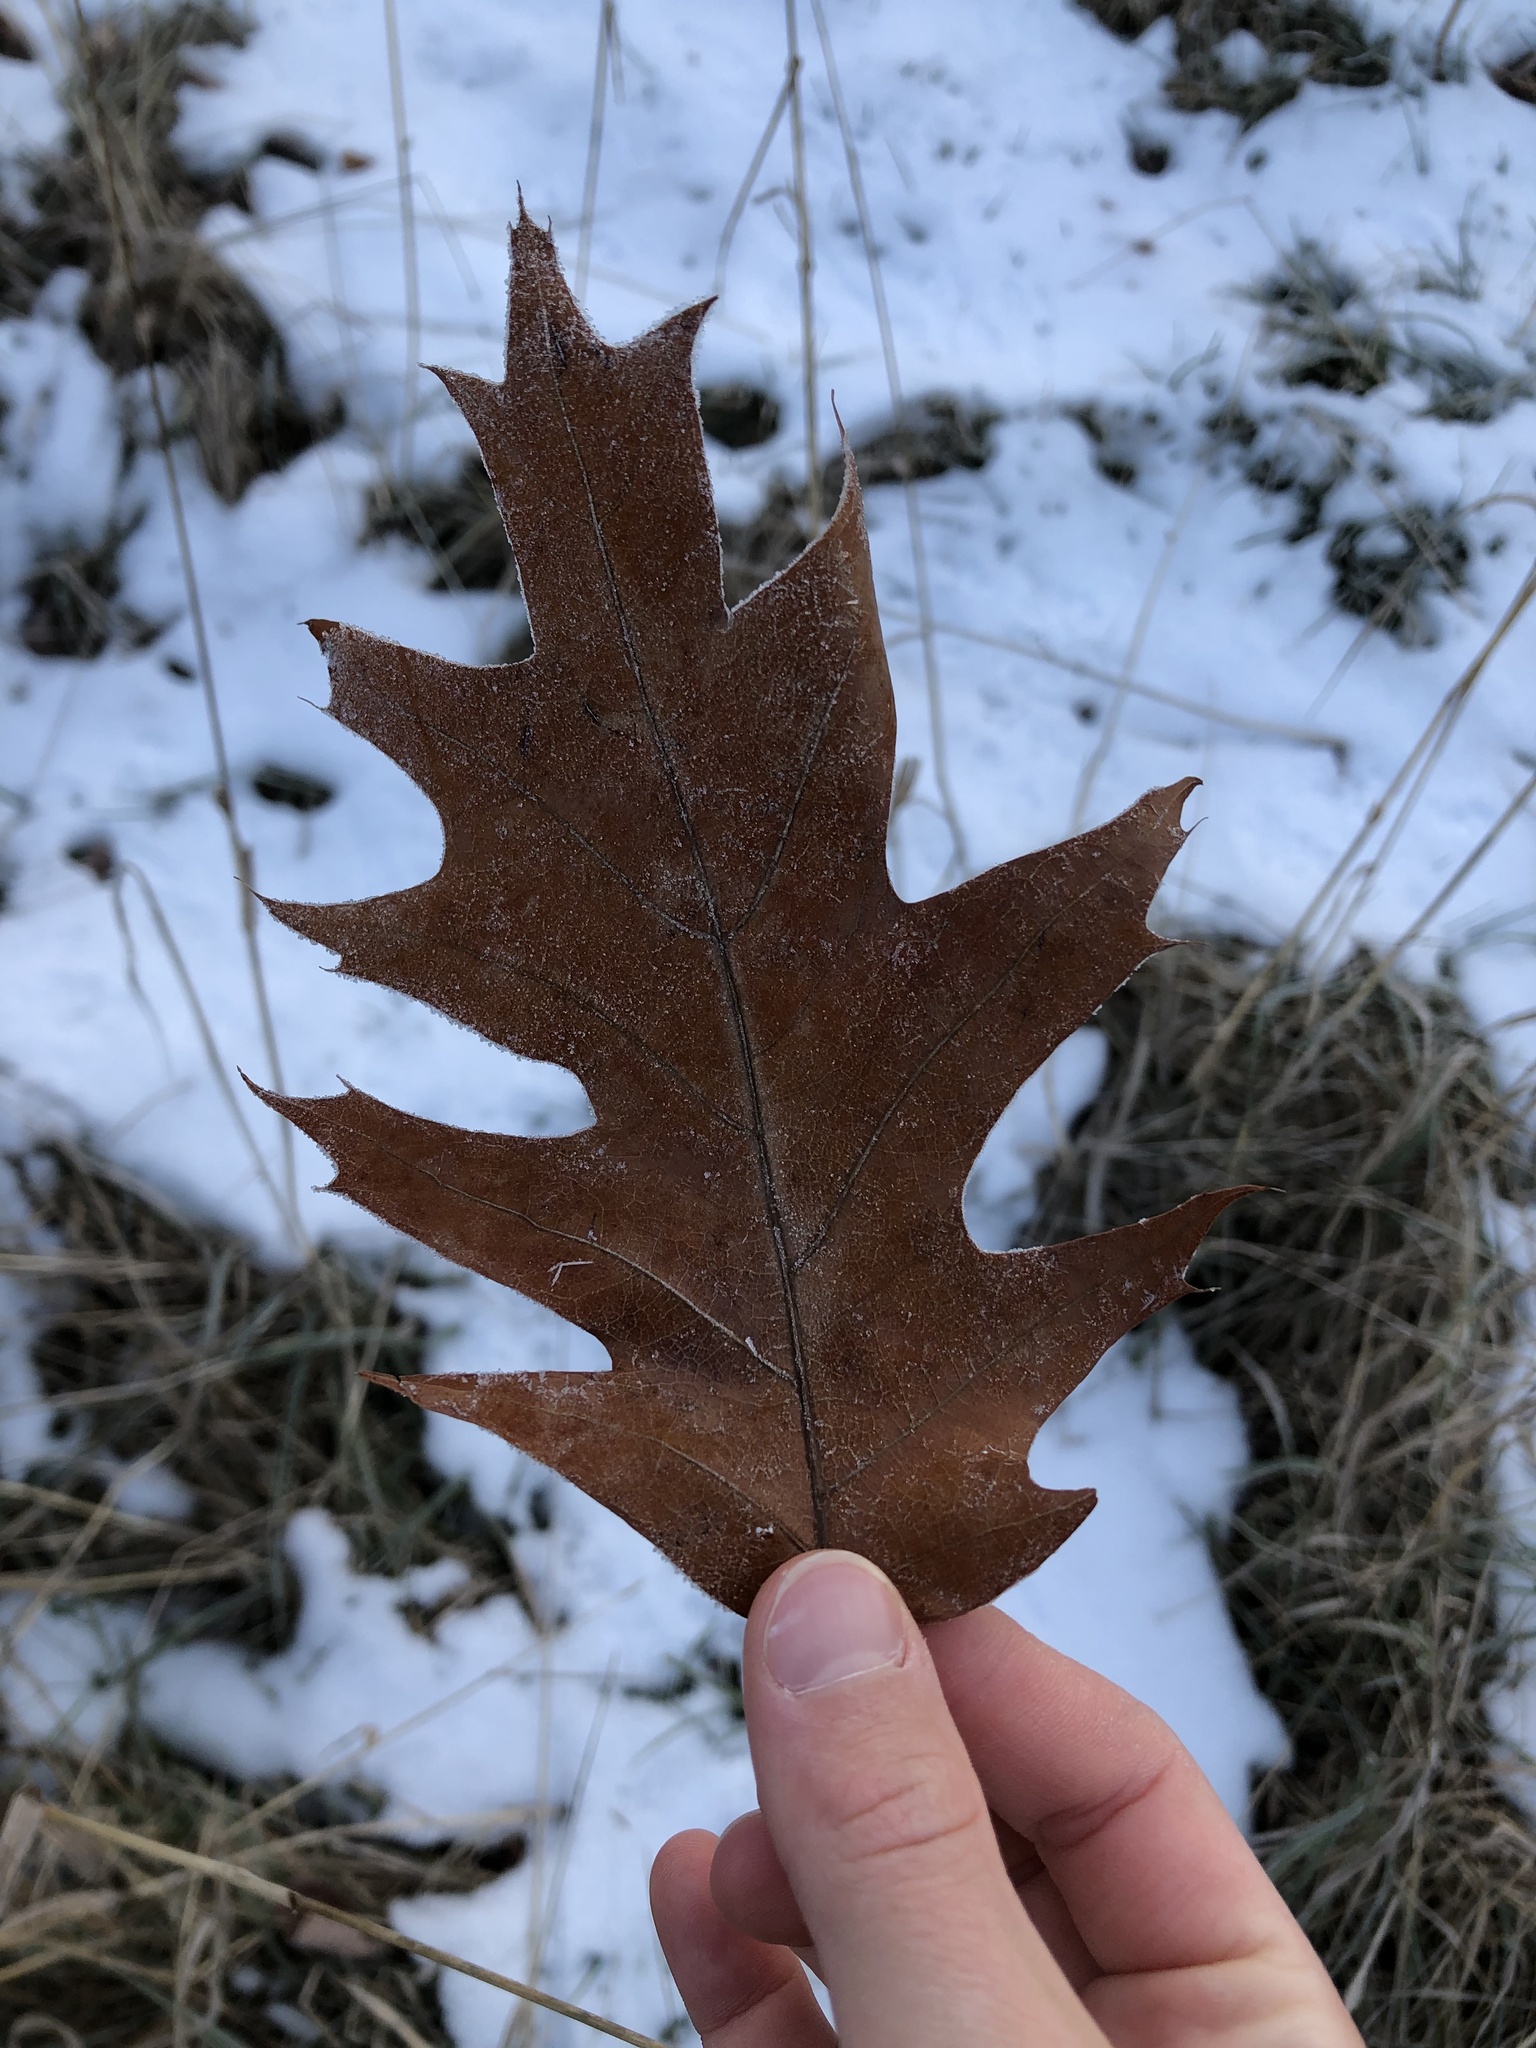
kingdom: Plantae
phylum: Tracheophyta
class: Magnoliopsida
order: Fagales
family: Fagaceae
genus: Quercus
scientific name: Quercus rubra
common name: Red oak
